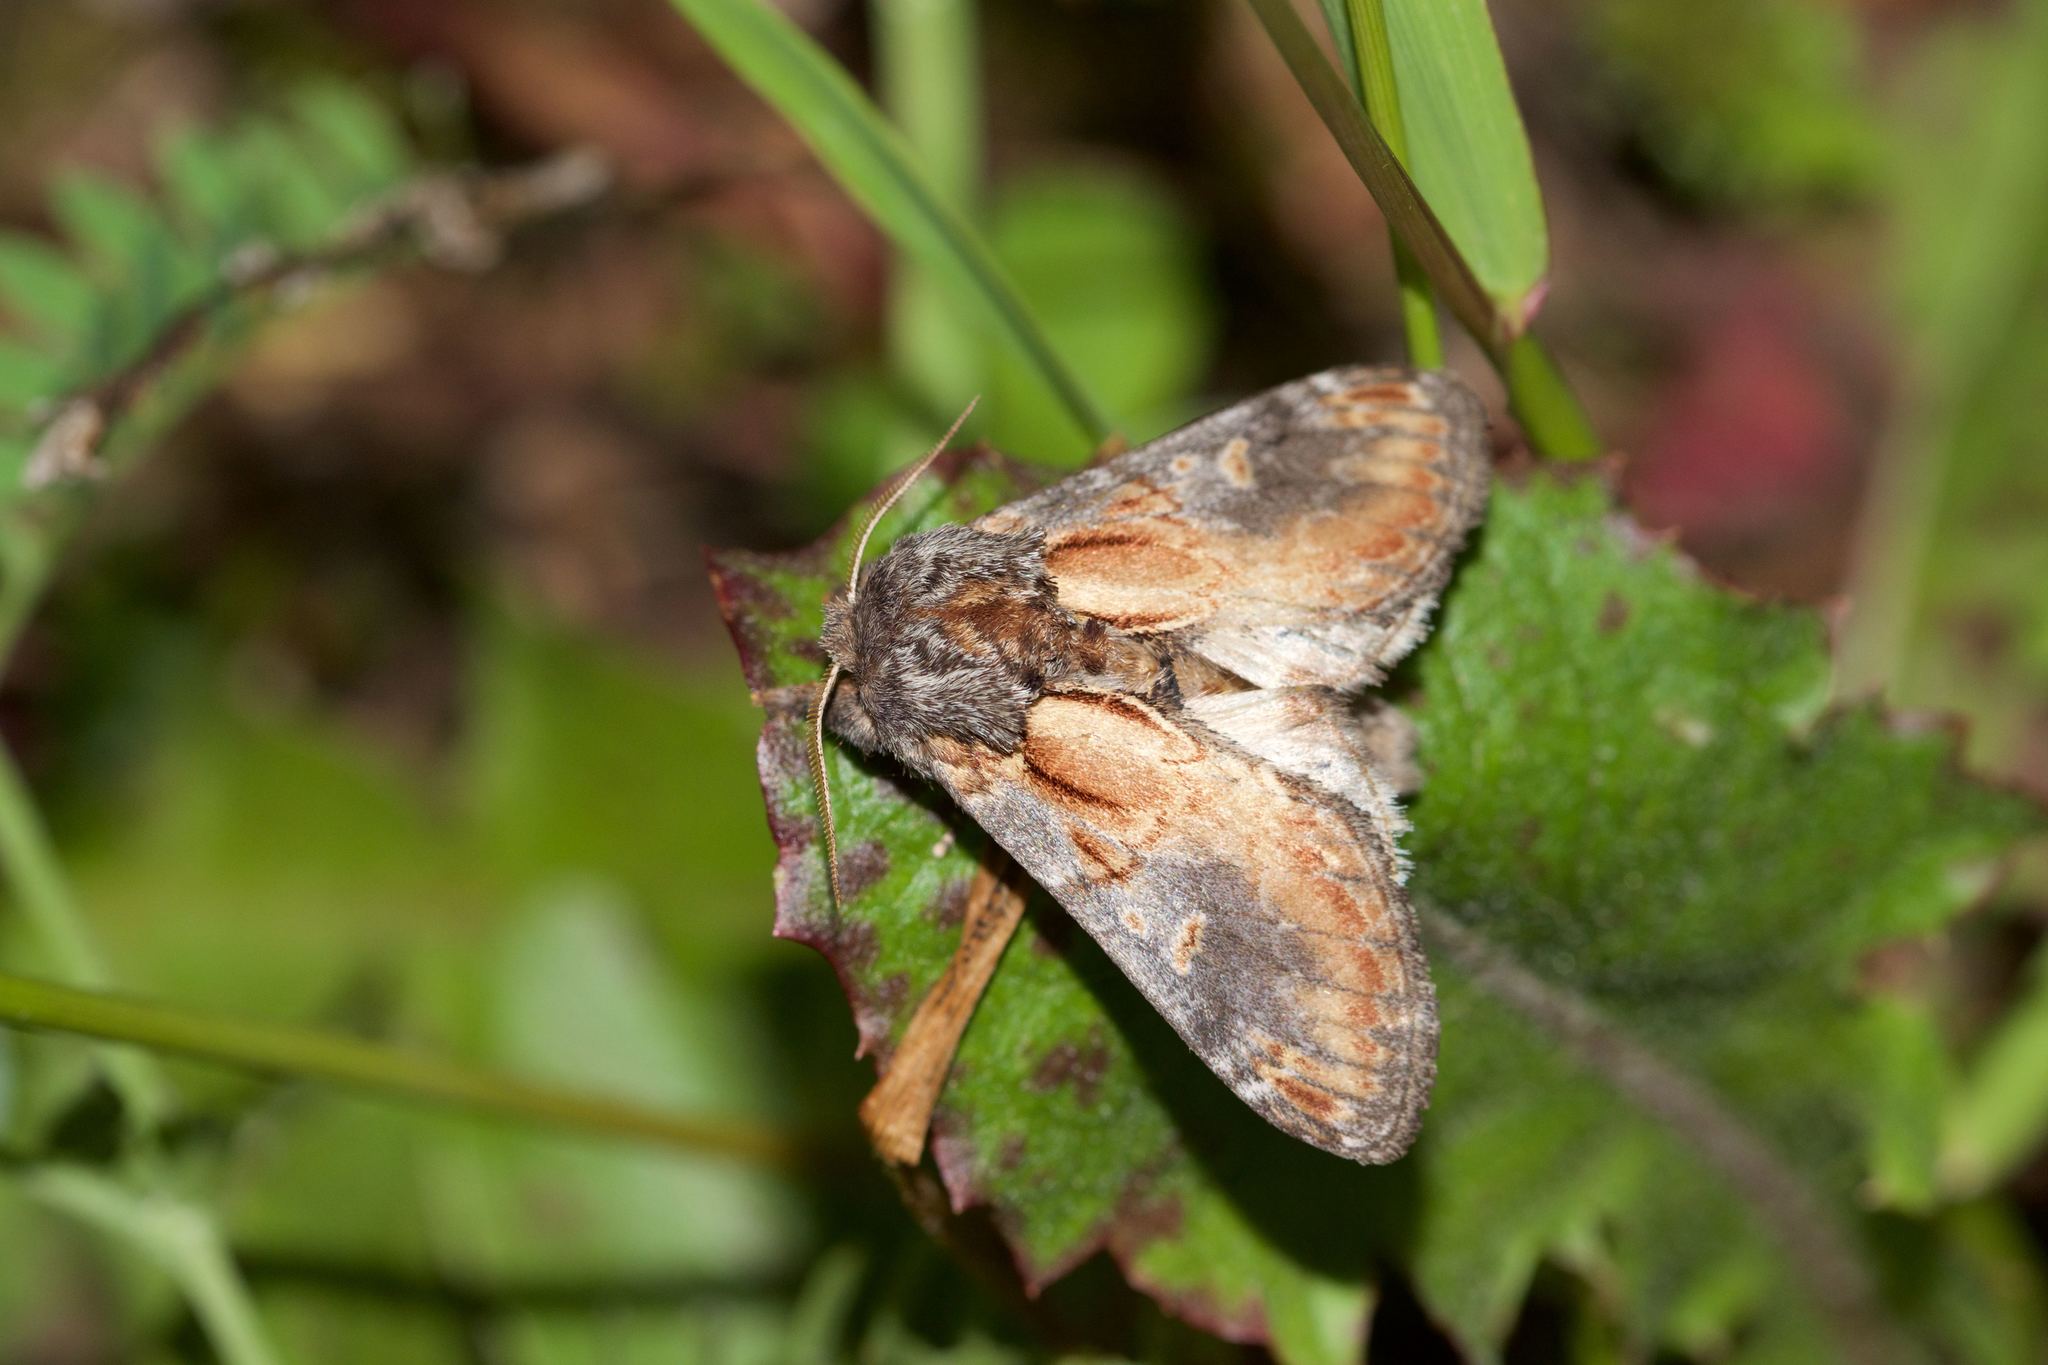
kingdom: Animalia
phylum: Arthropoda
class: Insecta
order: Lepidoptera
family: Notodontidae
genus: Notodonta
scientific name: Notodonta
